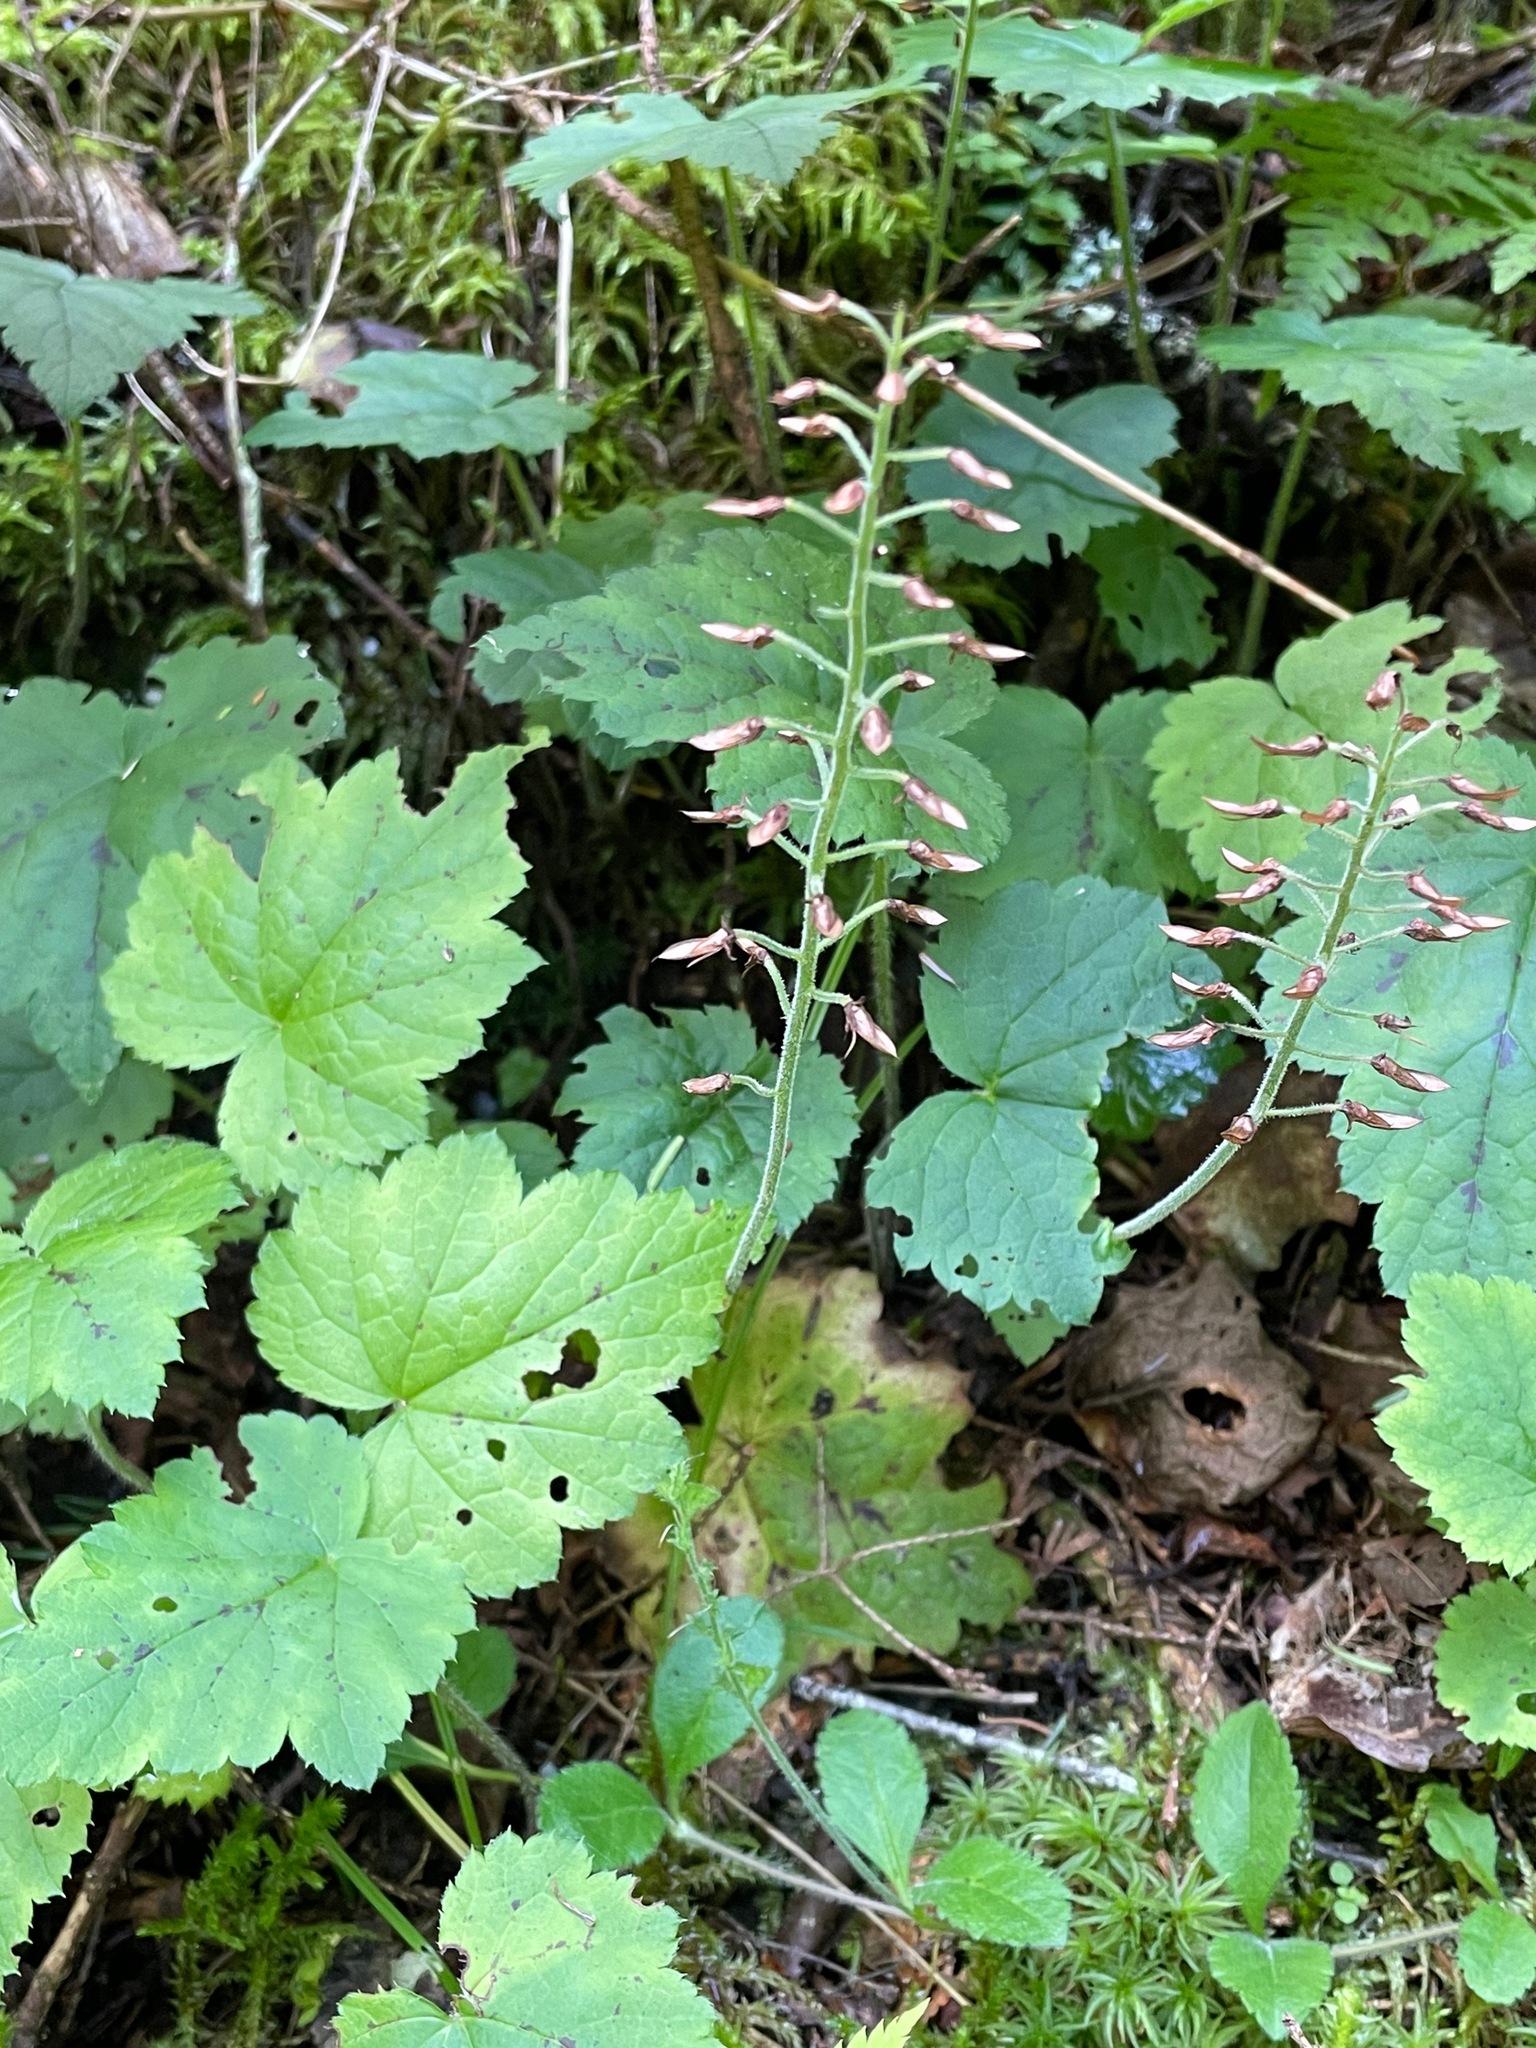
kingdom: Plantae
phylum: Tracheophyta
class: Magnoliopsida
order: Saxifragales
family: Saxifragaceae
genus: Tiarella
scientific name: Tiarella stolonifera
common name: Stoloniferous foamflower
